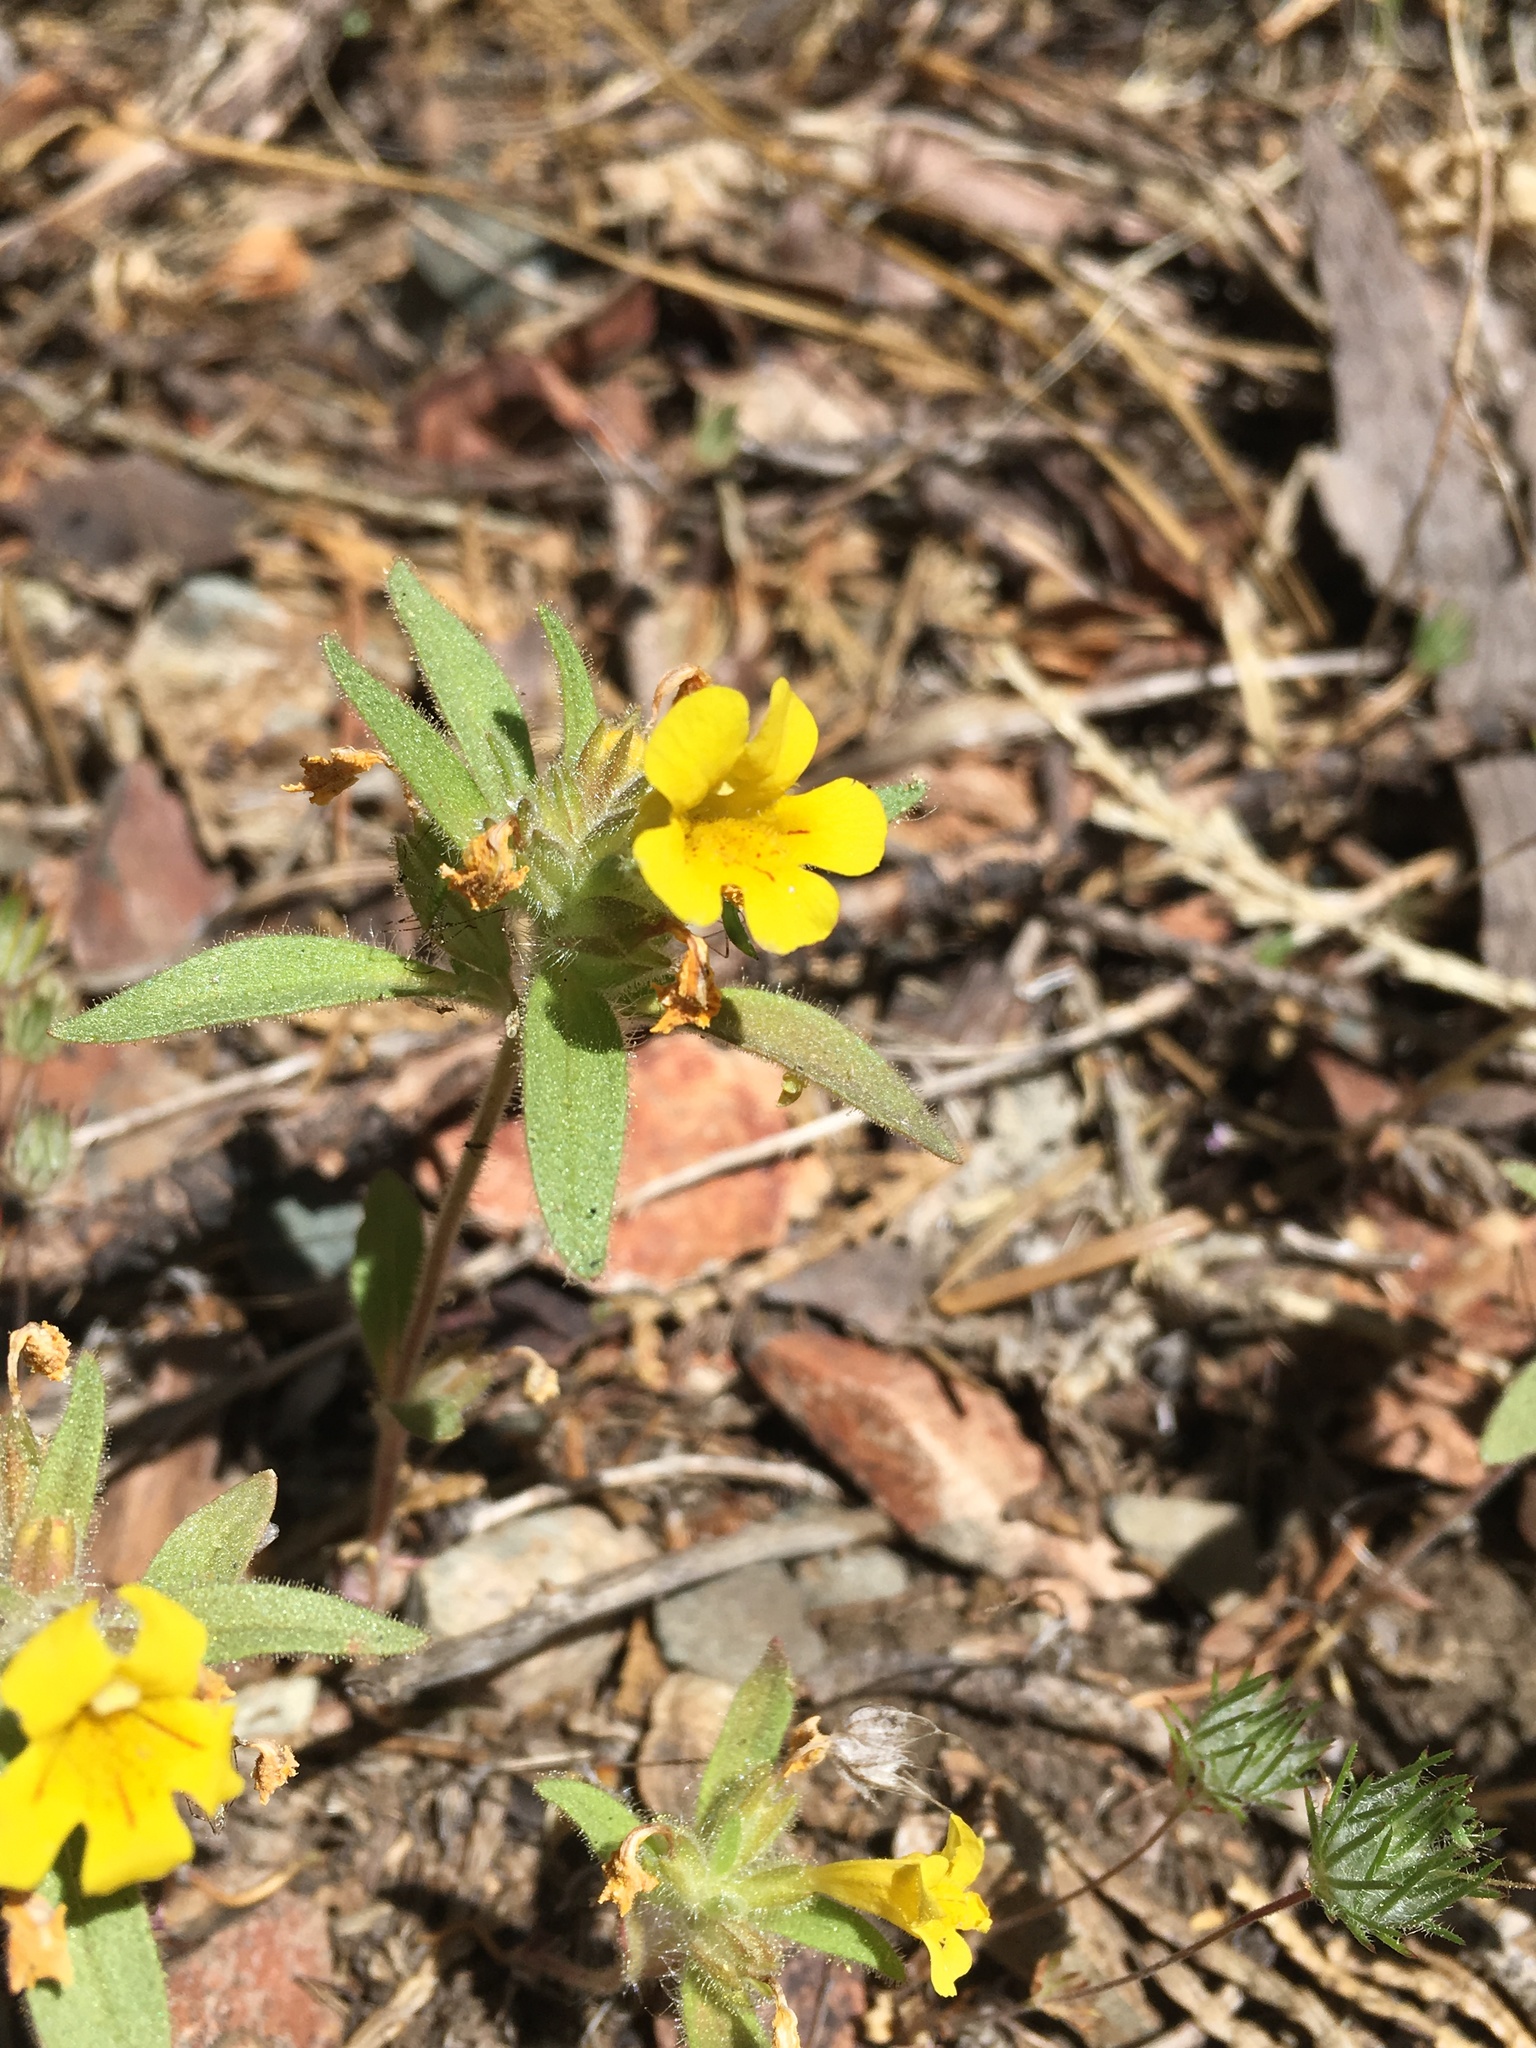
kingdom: Plantae
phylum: Tracheophyta
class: Magnoliopsida
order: Lamiales
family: Phrymaceae
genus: Diplacus
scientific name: Diplacus mephiticus
